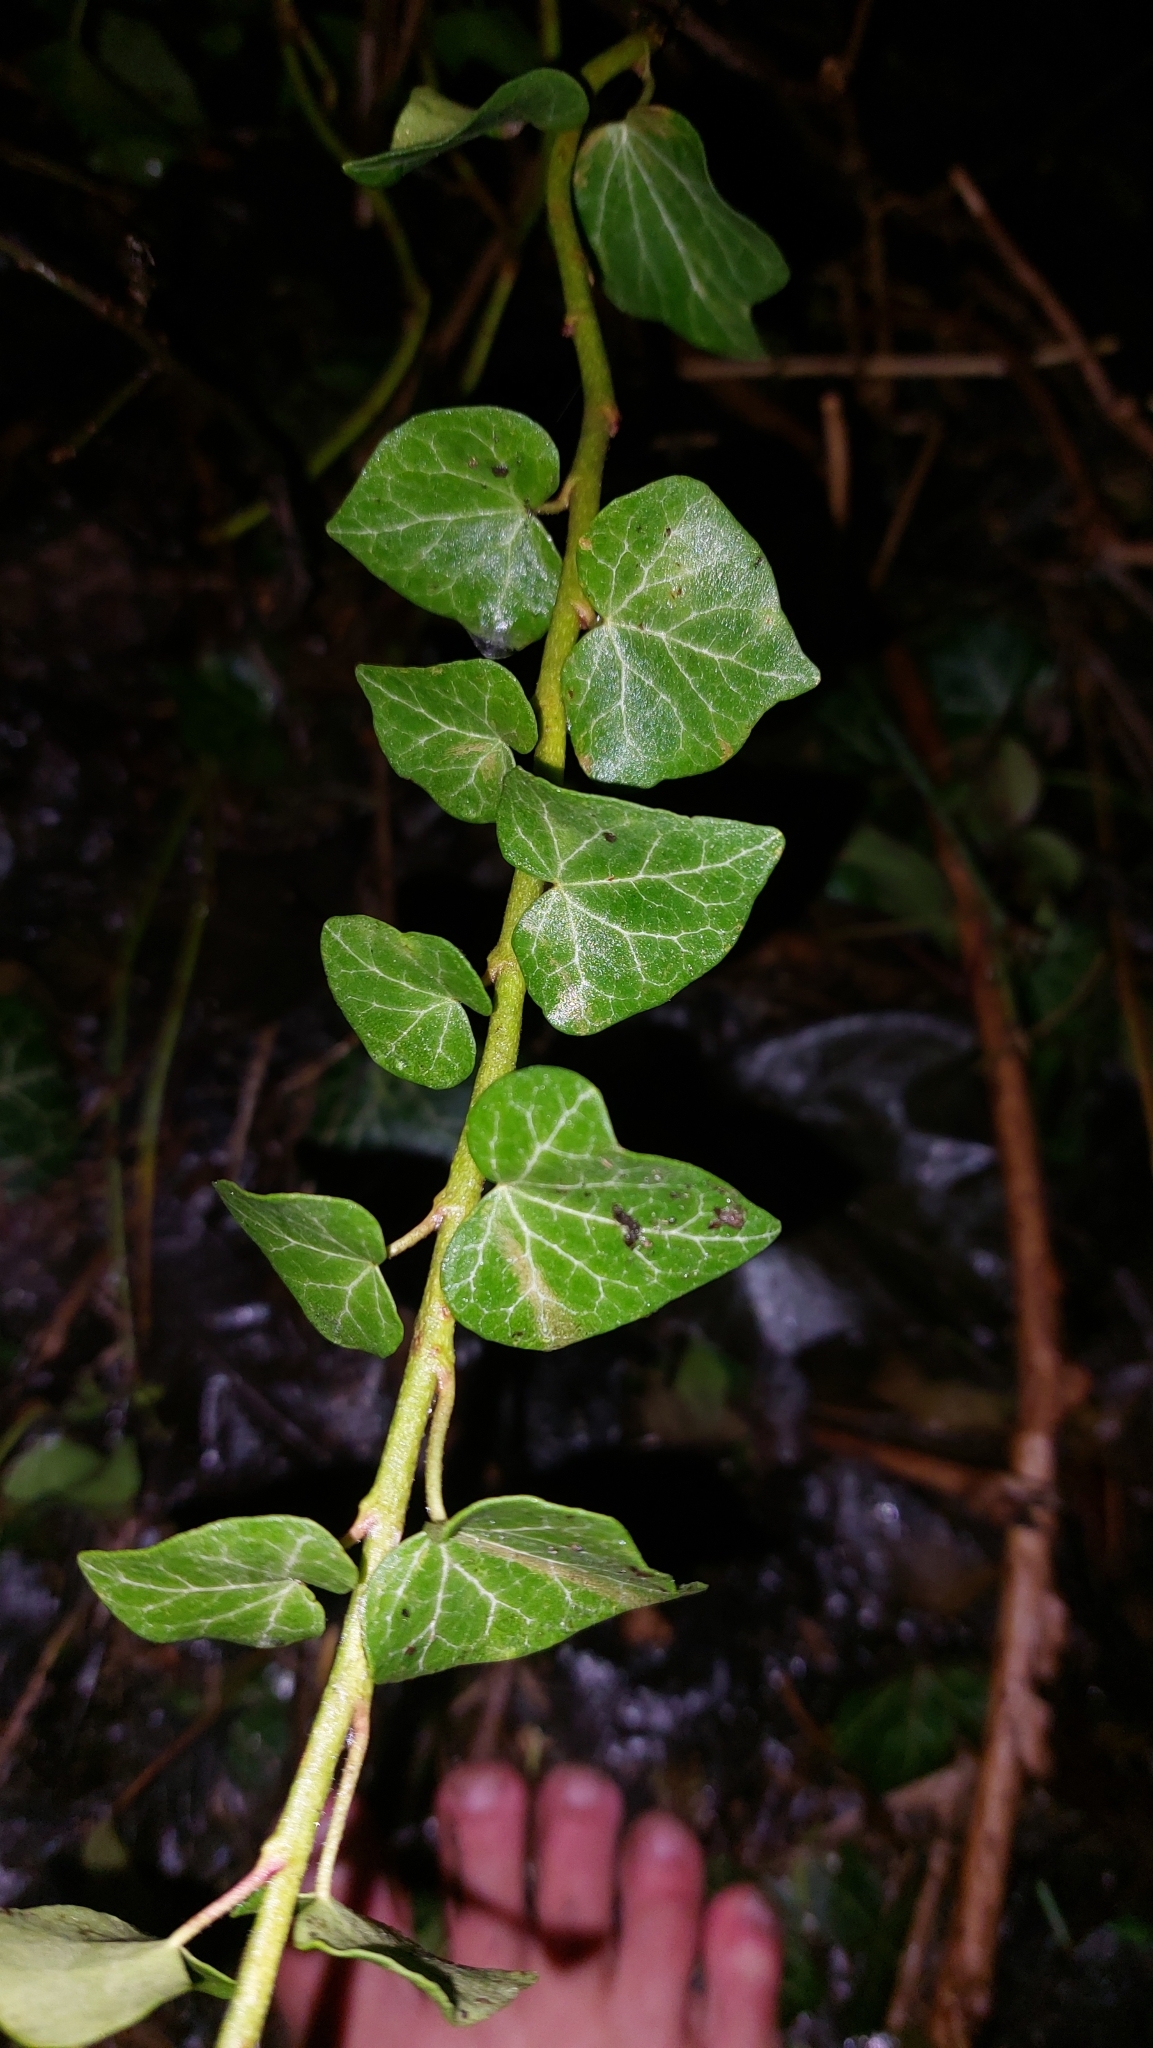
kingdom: Plantae
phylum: Tracheophyta
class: Magnoliopsida
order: Apiales
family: Araliaceae
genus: Hedera
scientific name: Hedera helix
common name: Ivy
